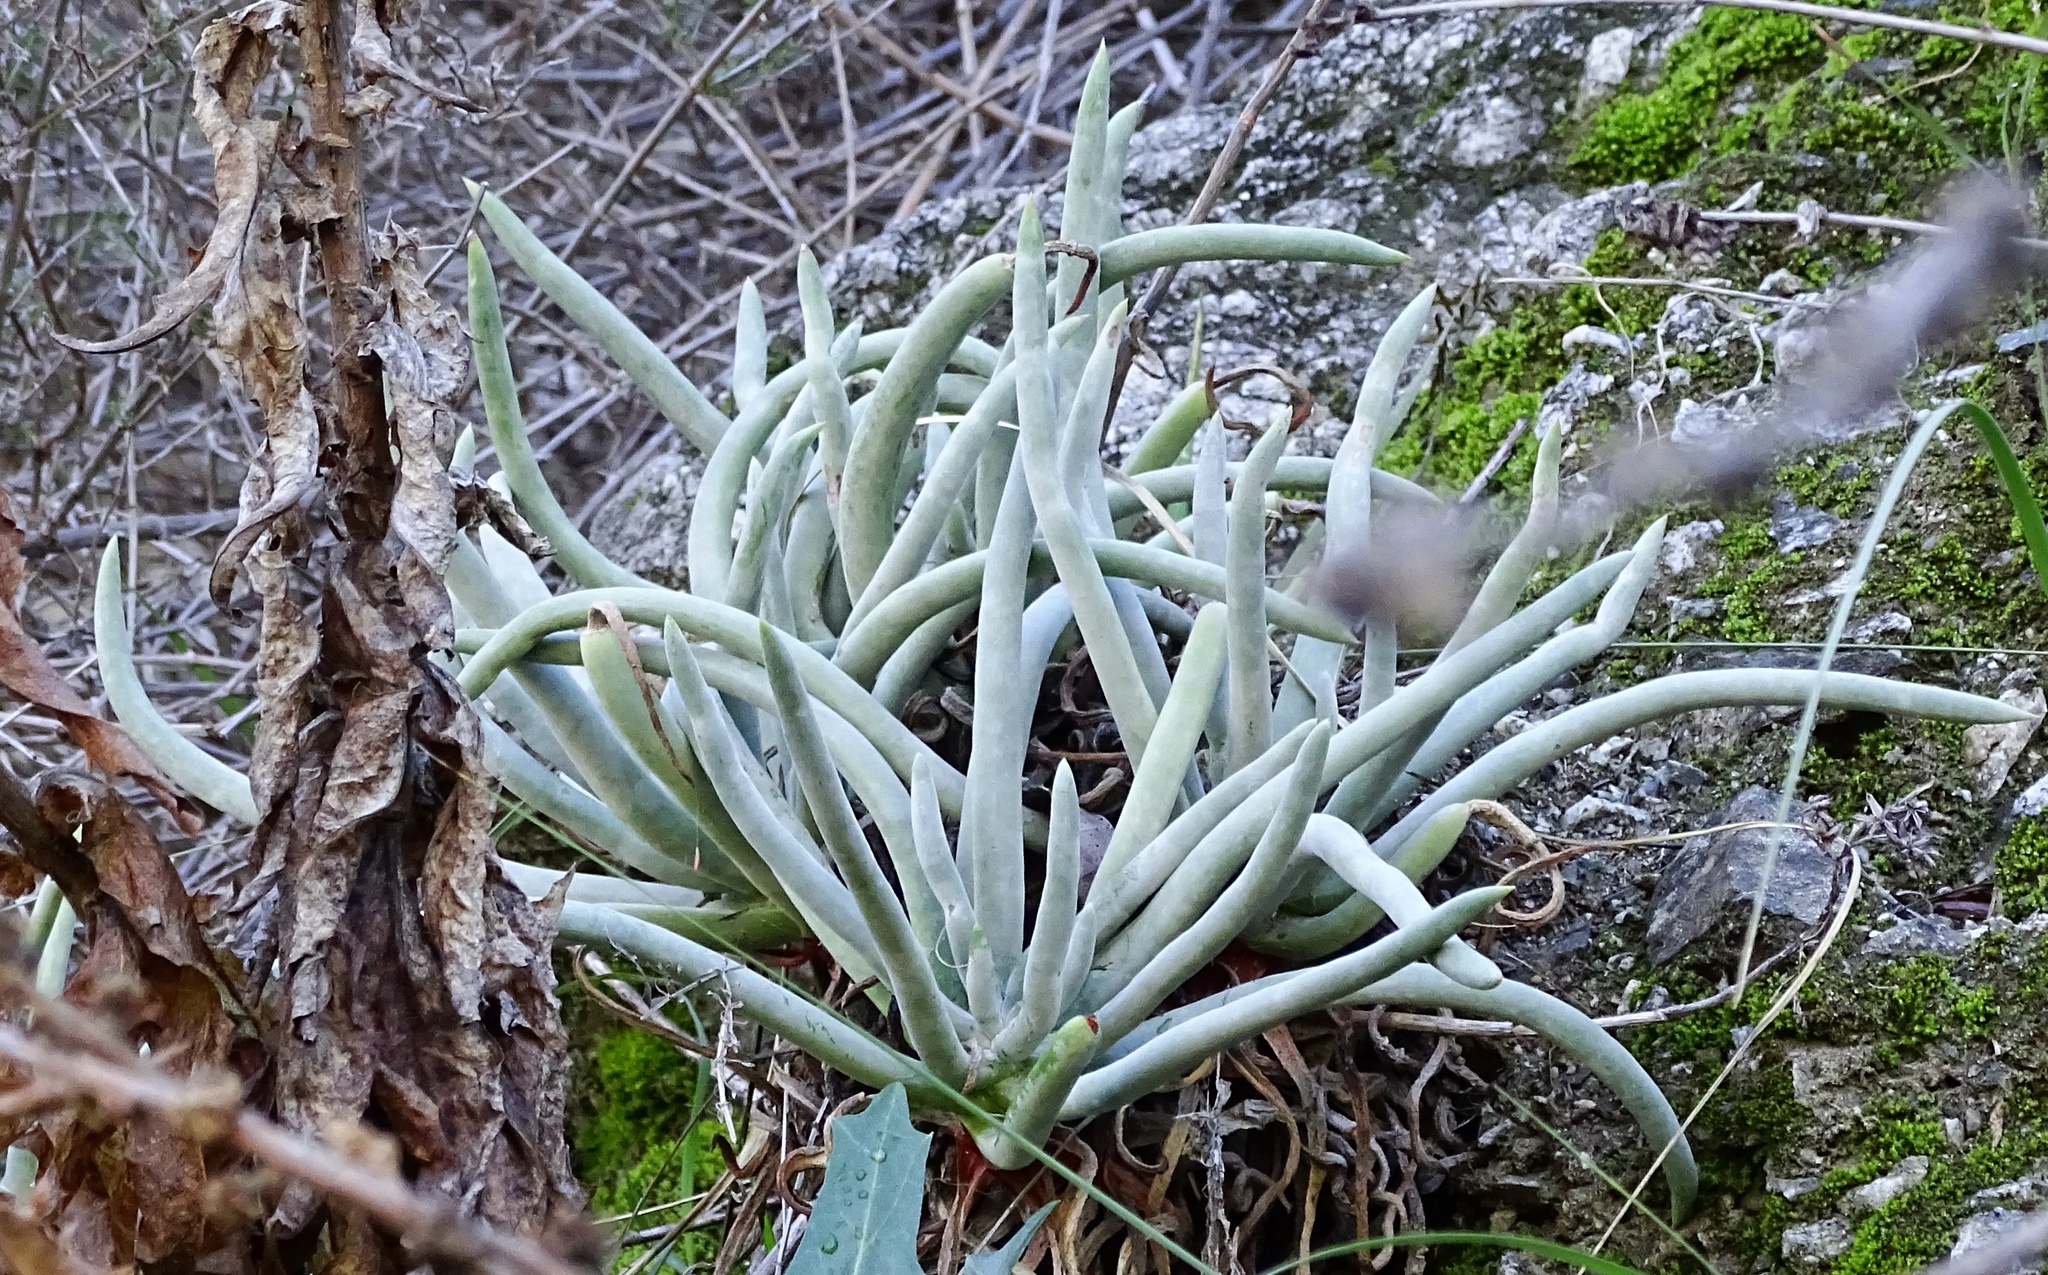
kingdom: Plantae
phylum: Tracheophyta
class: Magnoliopsida
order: Saxifragales
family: Crassulaceae
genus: Dudleya
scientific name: Dudleya densiflora
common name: San gabriel mountains dudleya
